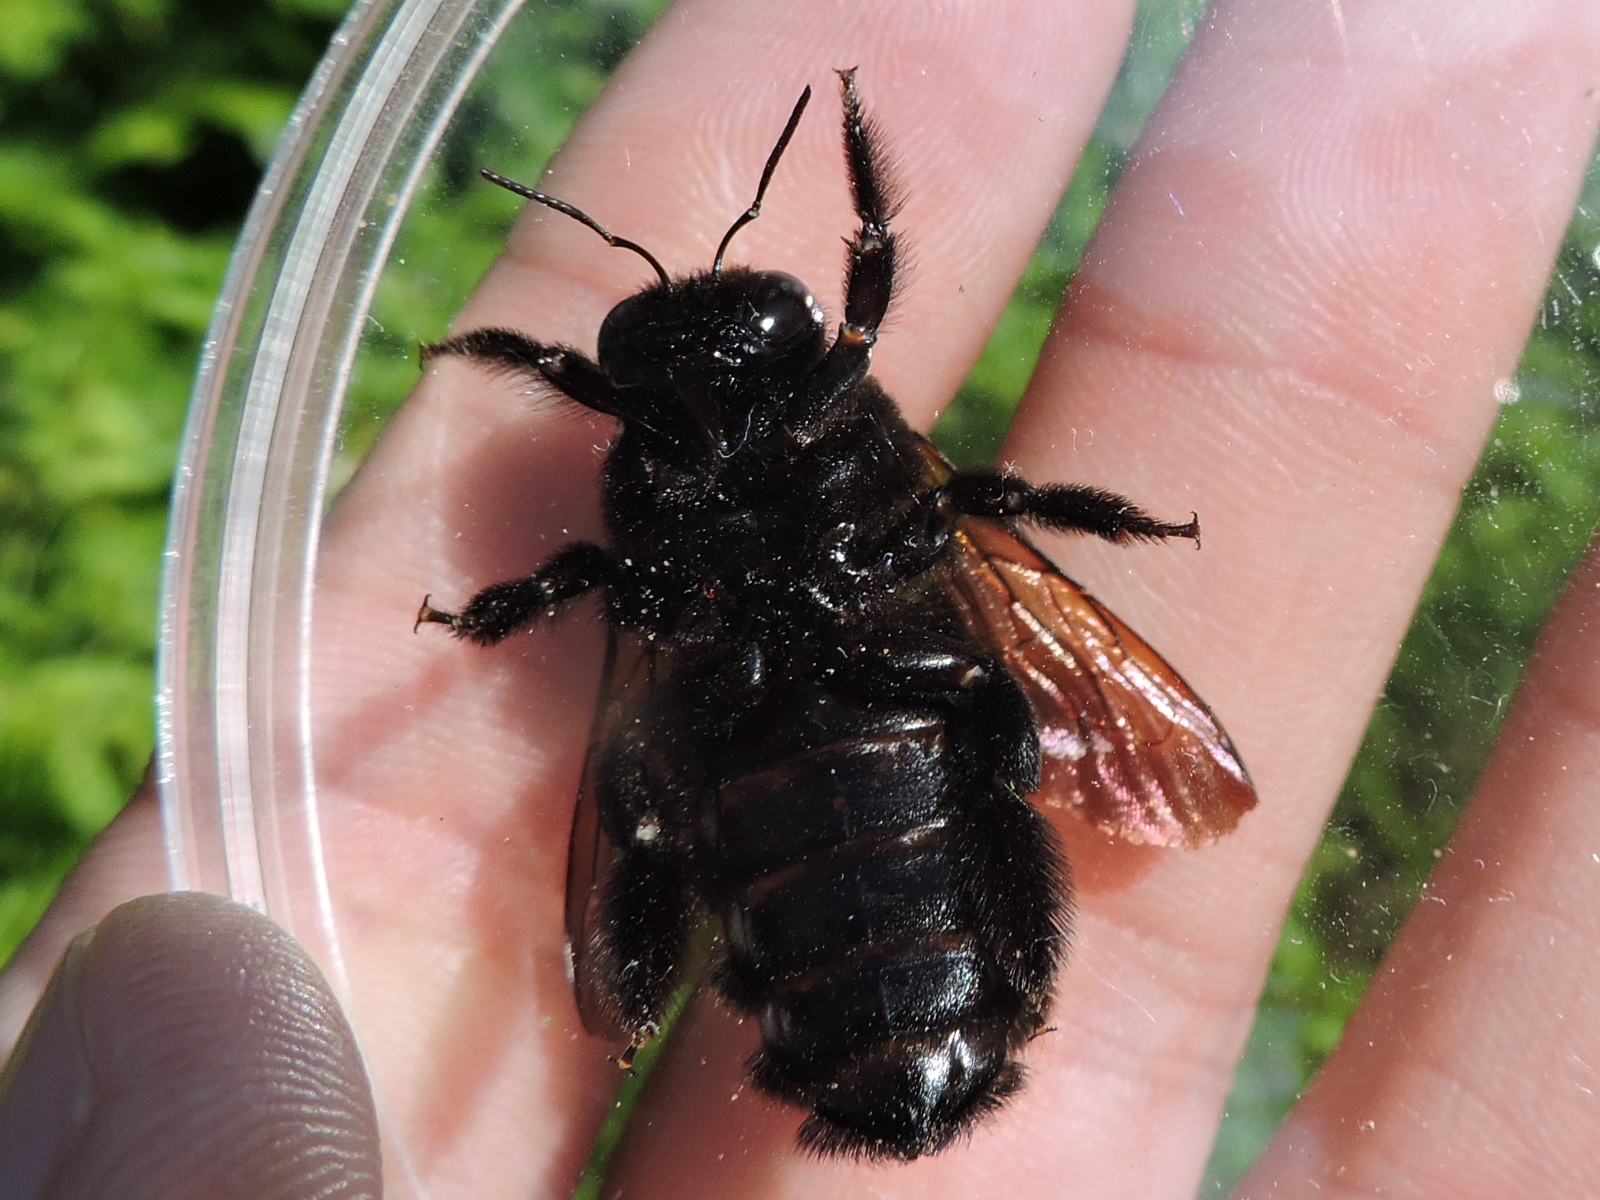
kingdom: Animalia
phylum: Arthropoda
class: Insecta
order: Hymenoptera
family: Apidae
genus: Xylocopa
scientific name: Xylocopa sonorina
